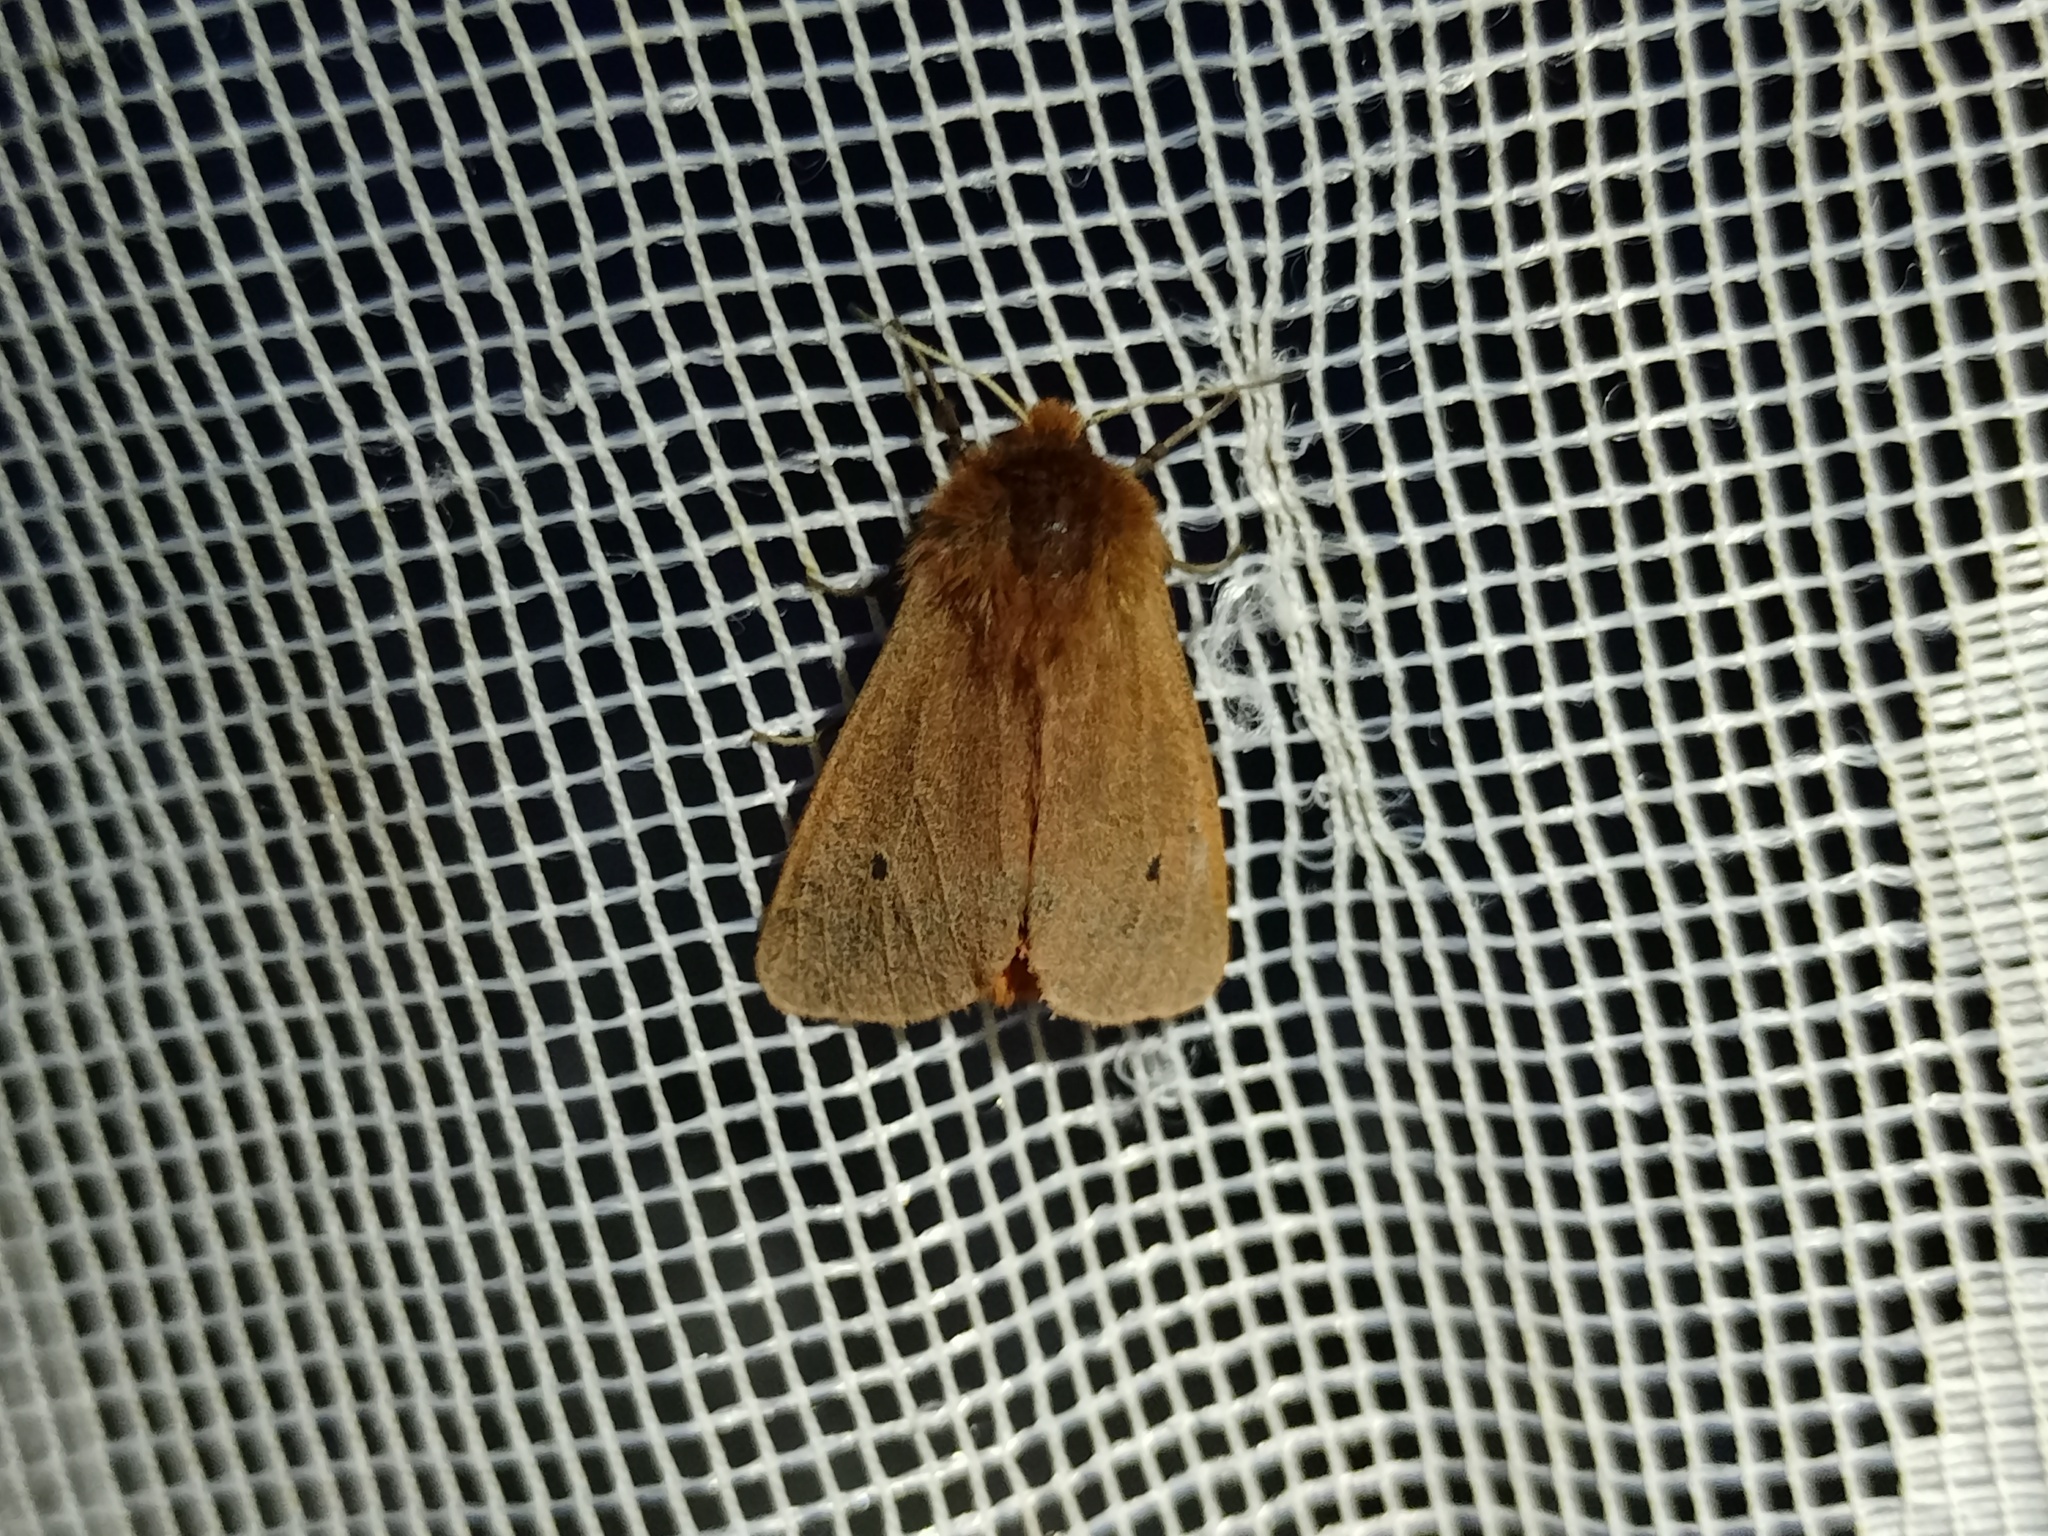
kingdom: Animalia
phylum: Arthropoda
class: Insecta
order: Lepidoptera
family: Erebidae
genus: Phragmatobia
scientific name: Phragmatobia fuliginosa
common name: Ruby tiger
